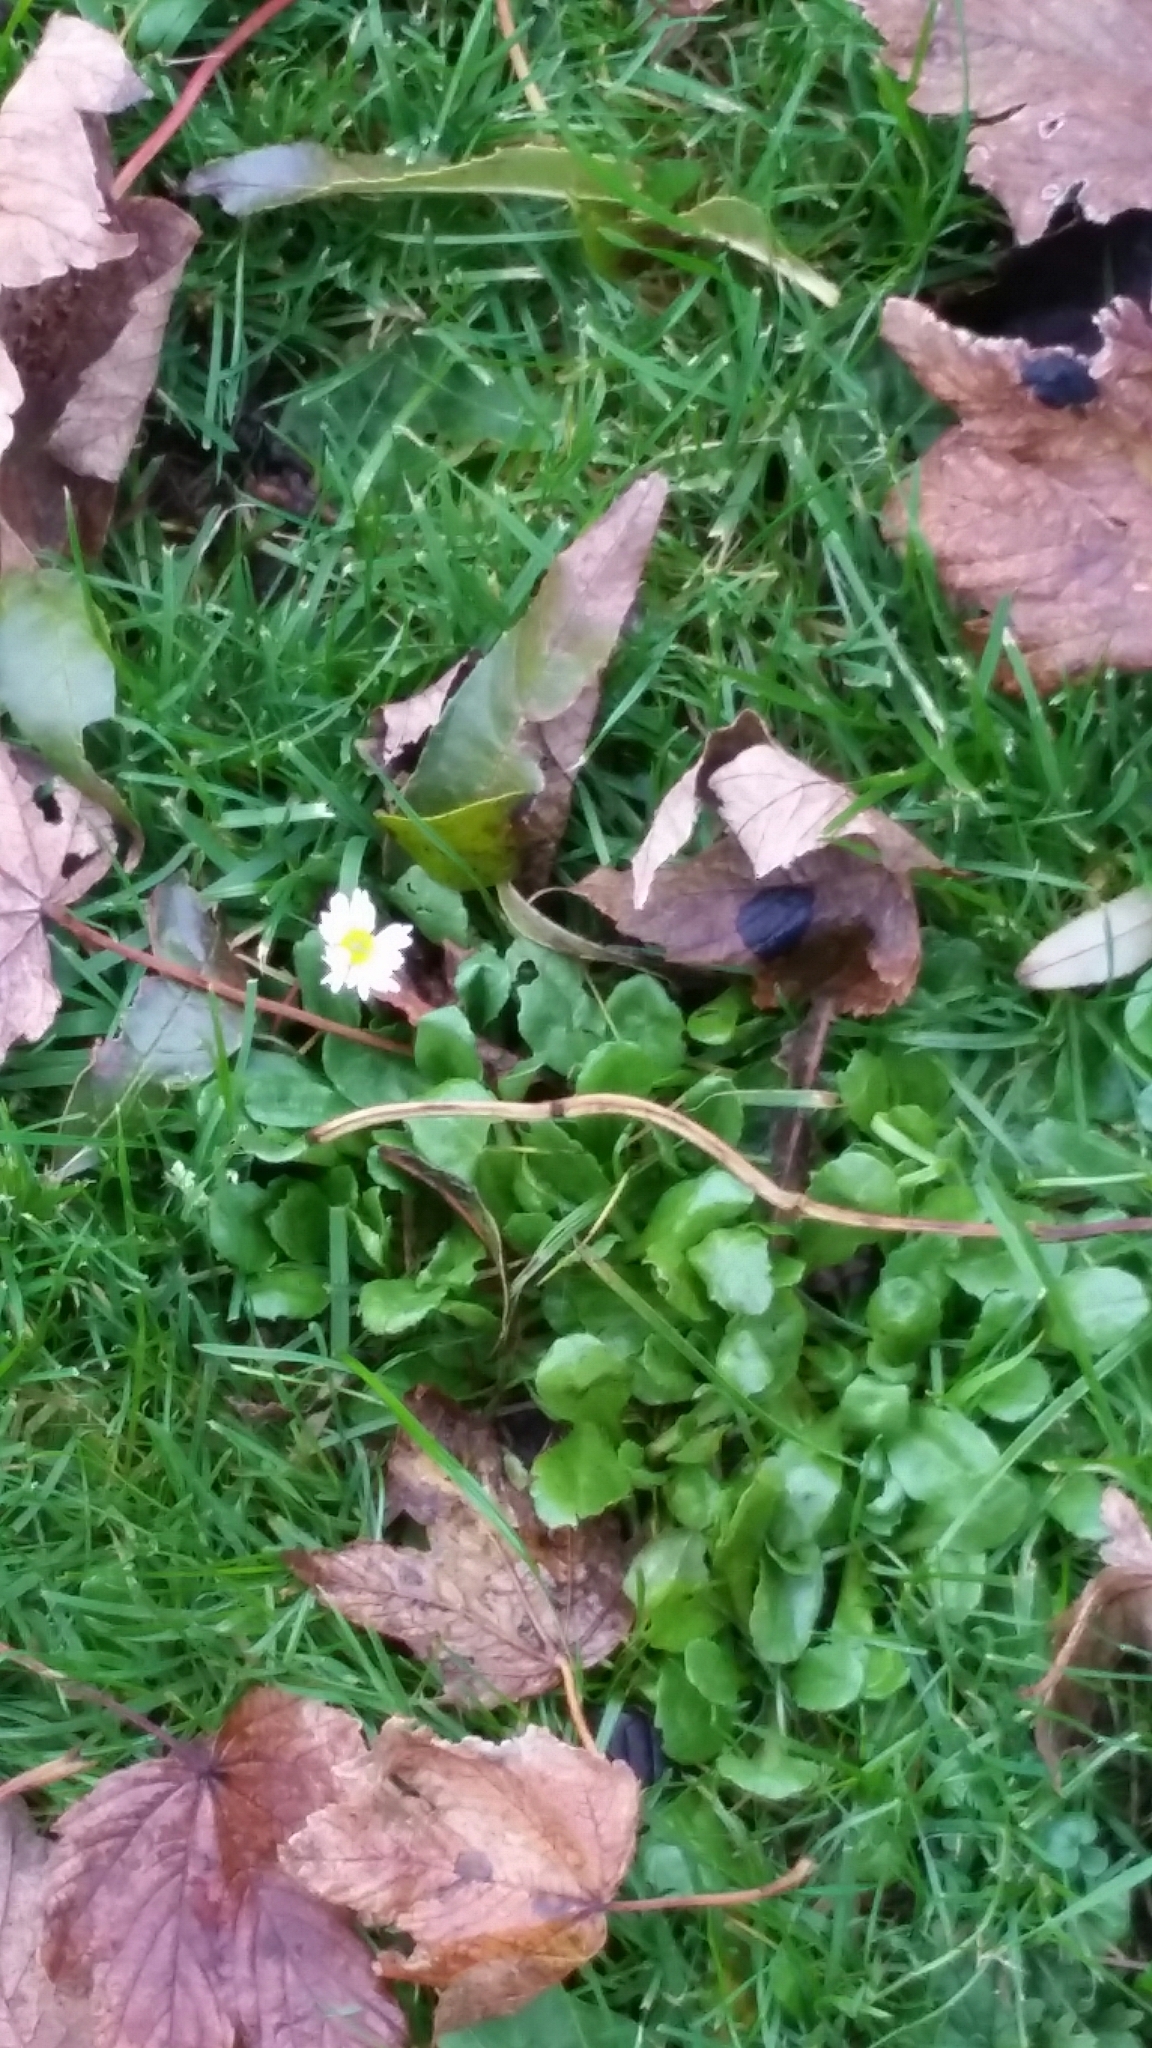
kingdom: Plantae
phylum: Tracheophyta
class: Magnoliopsida
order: Asterales
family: Asteraceae
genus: Bellis
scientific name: Bellis perennis
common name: Lawndaisy
